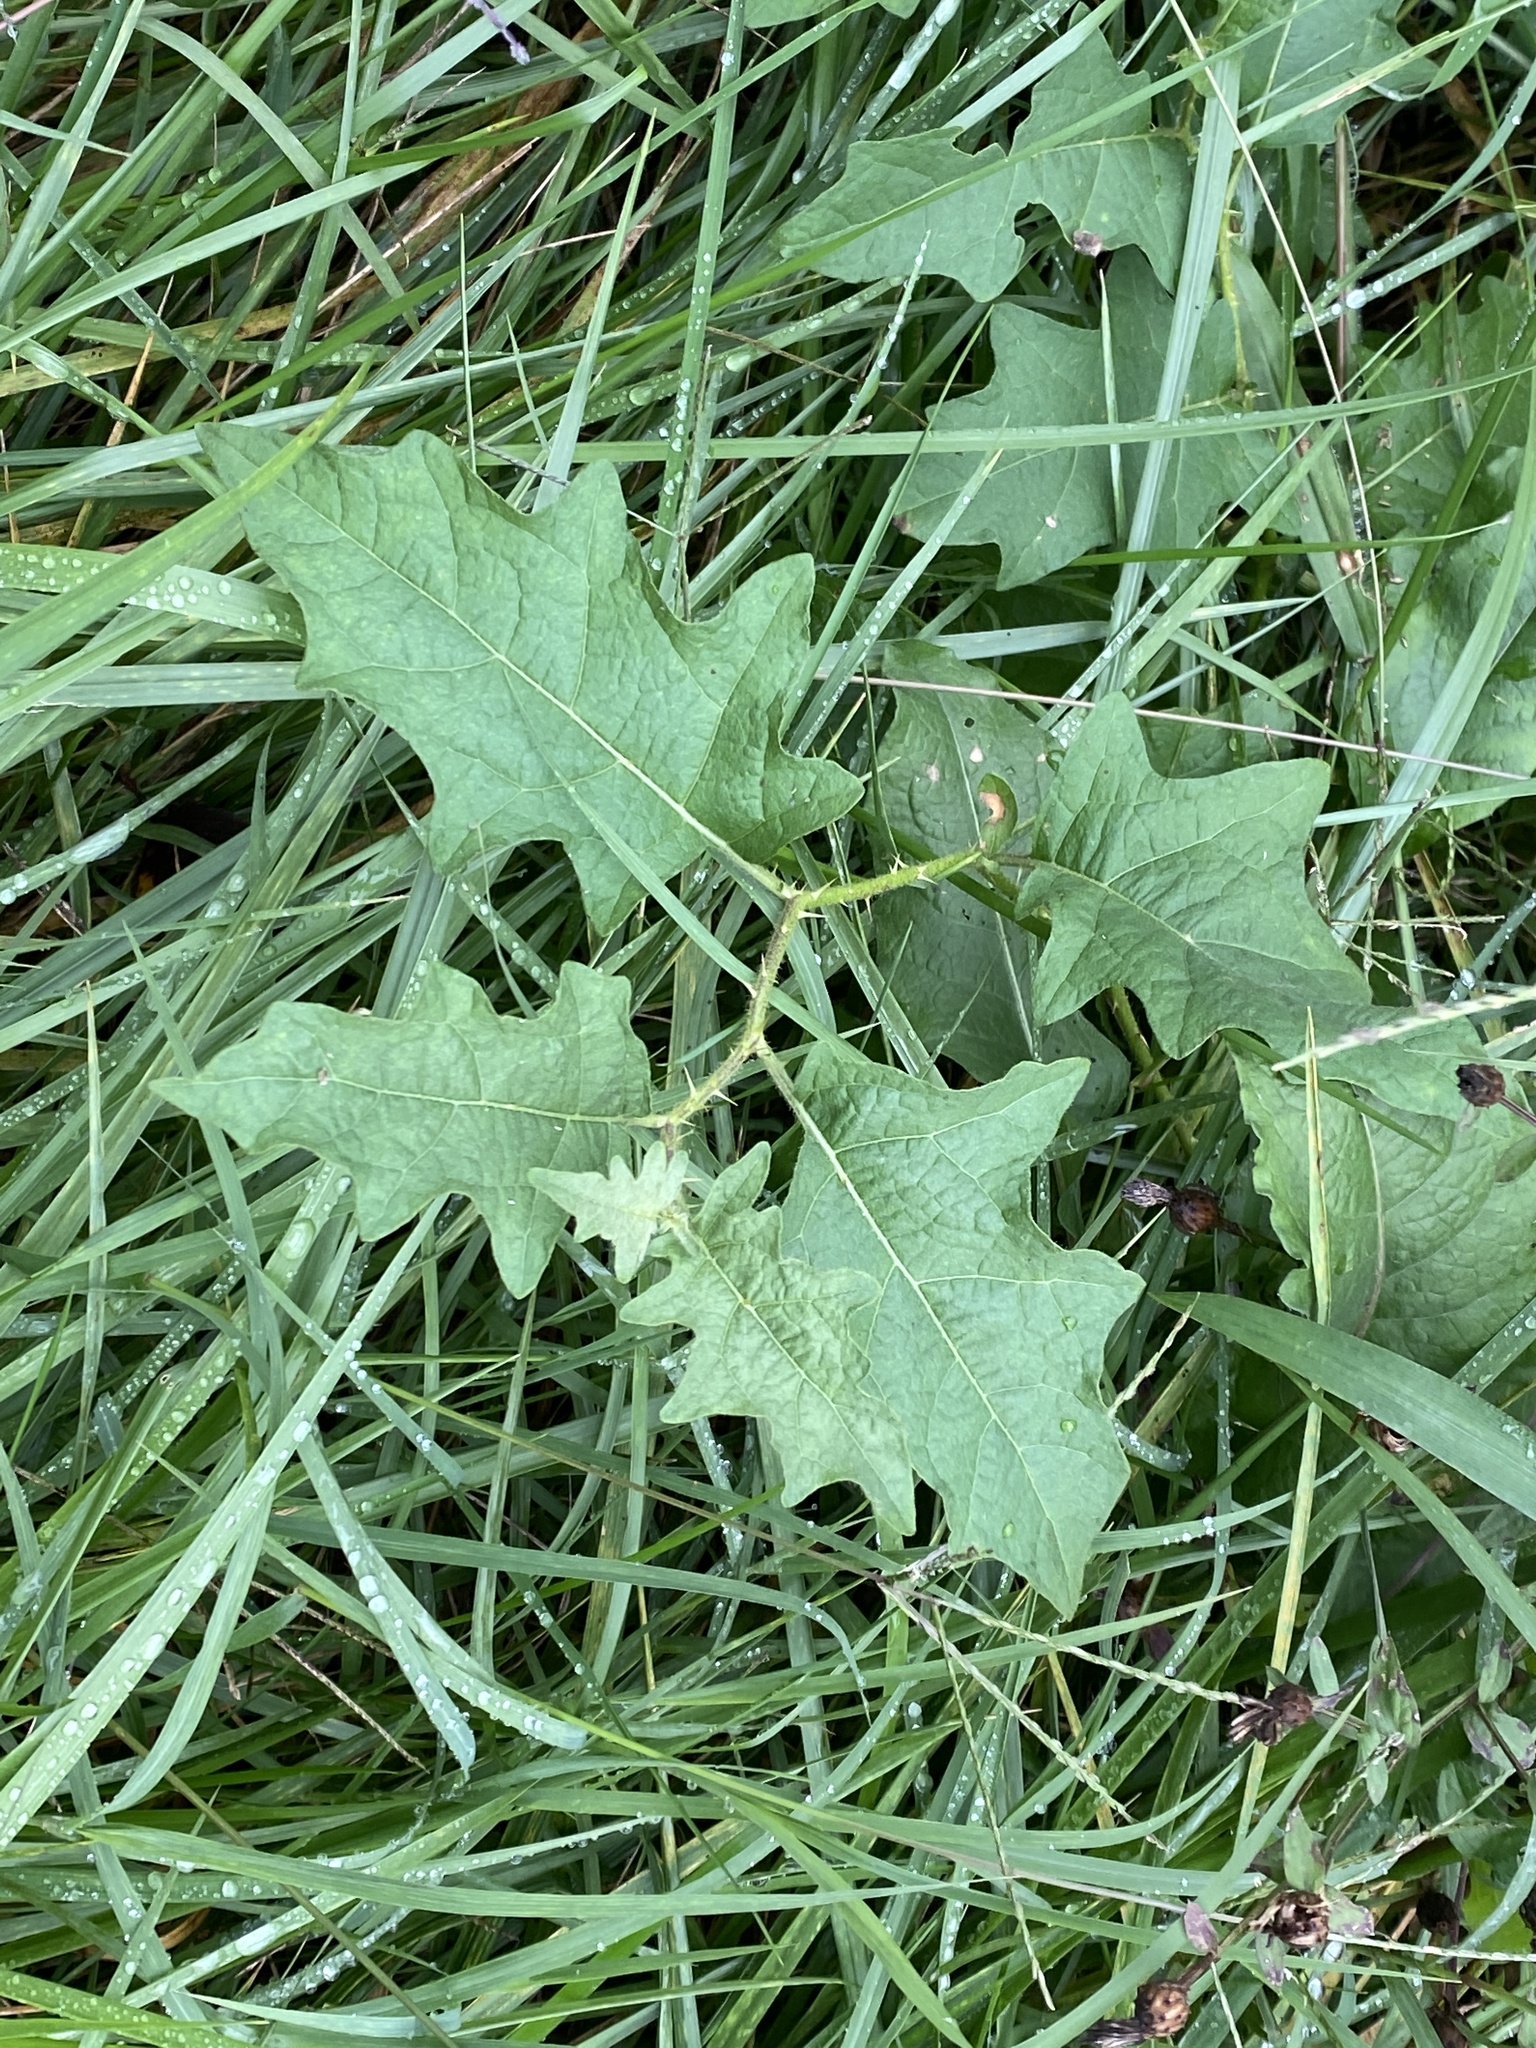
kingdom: Plantae
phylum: Tracheophyta
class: Magnoliopsida
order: Solanales
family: Solanaceae
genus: Solanum
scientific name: Solanum carolinense
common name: Horse-nettle
